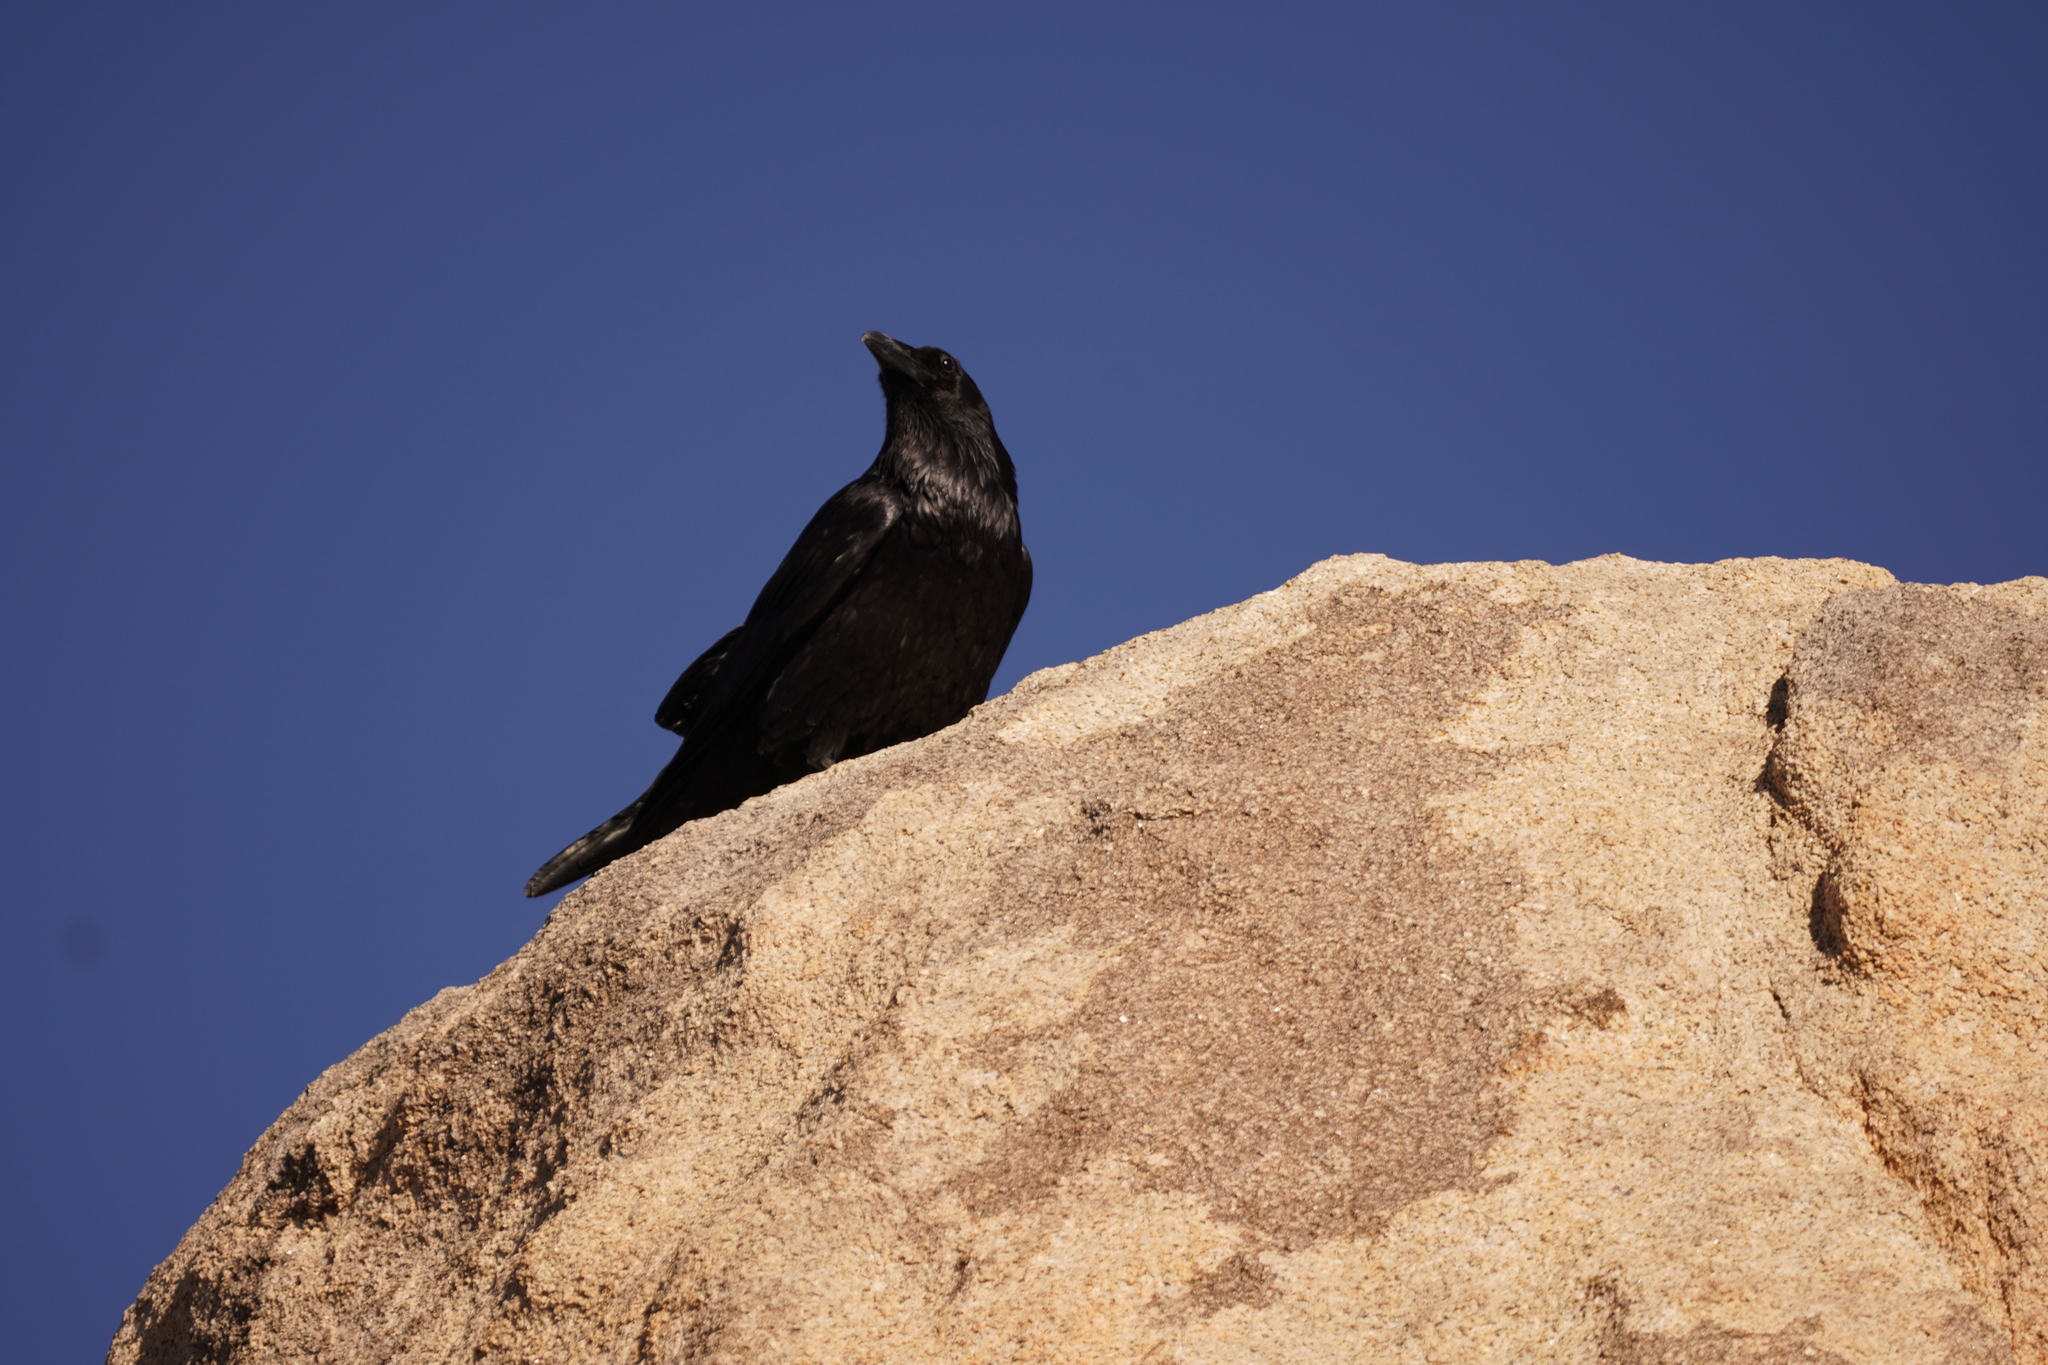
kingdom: Animalia
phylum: Chordata
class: Aves
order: Passeriformes
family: Corvidae
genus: Corvus
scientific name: Corvus corax
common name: Common raven
